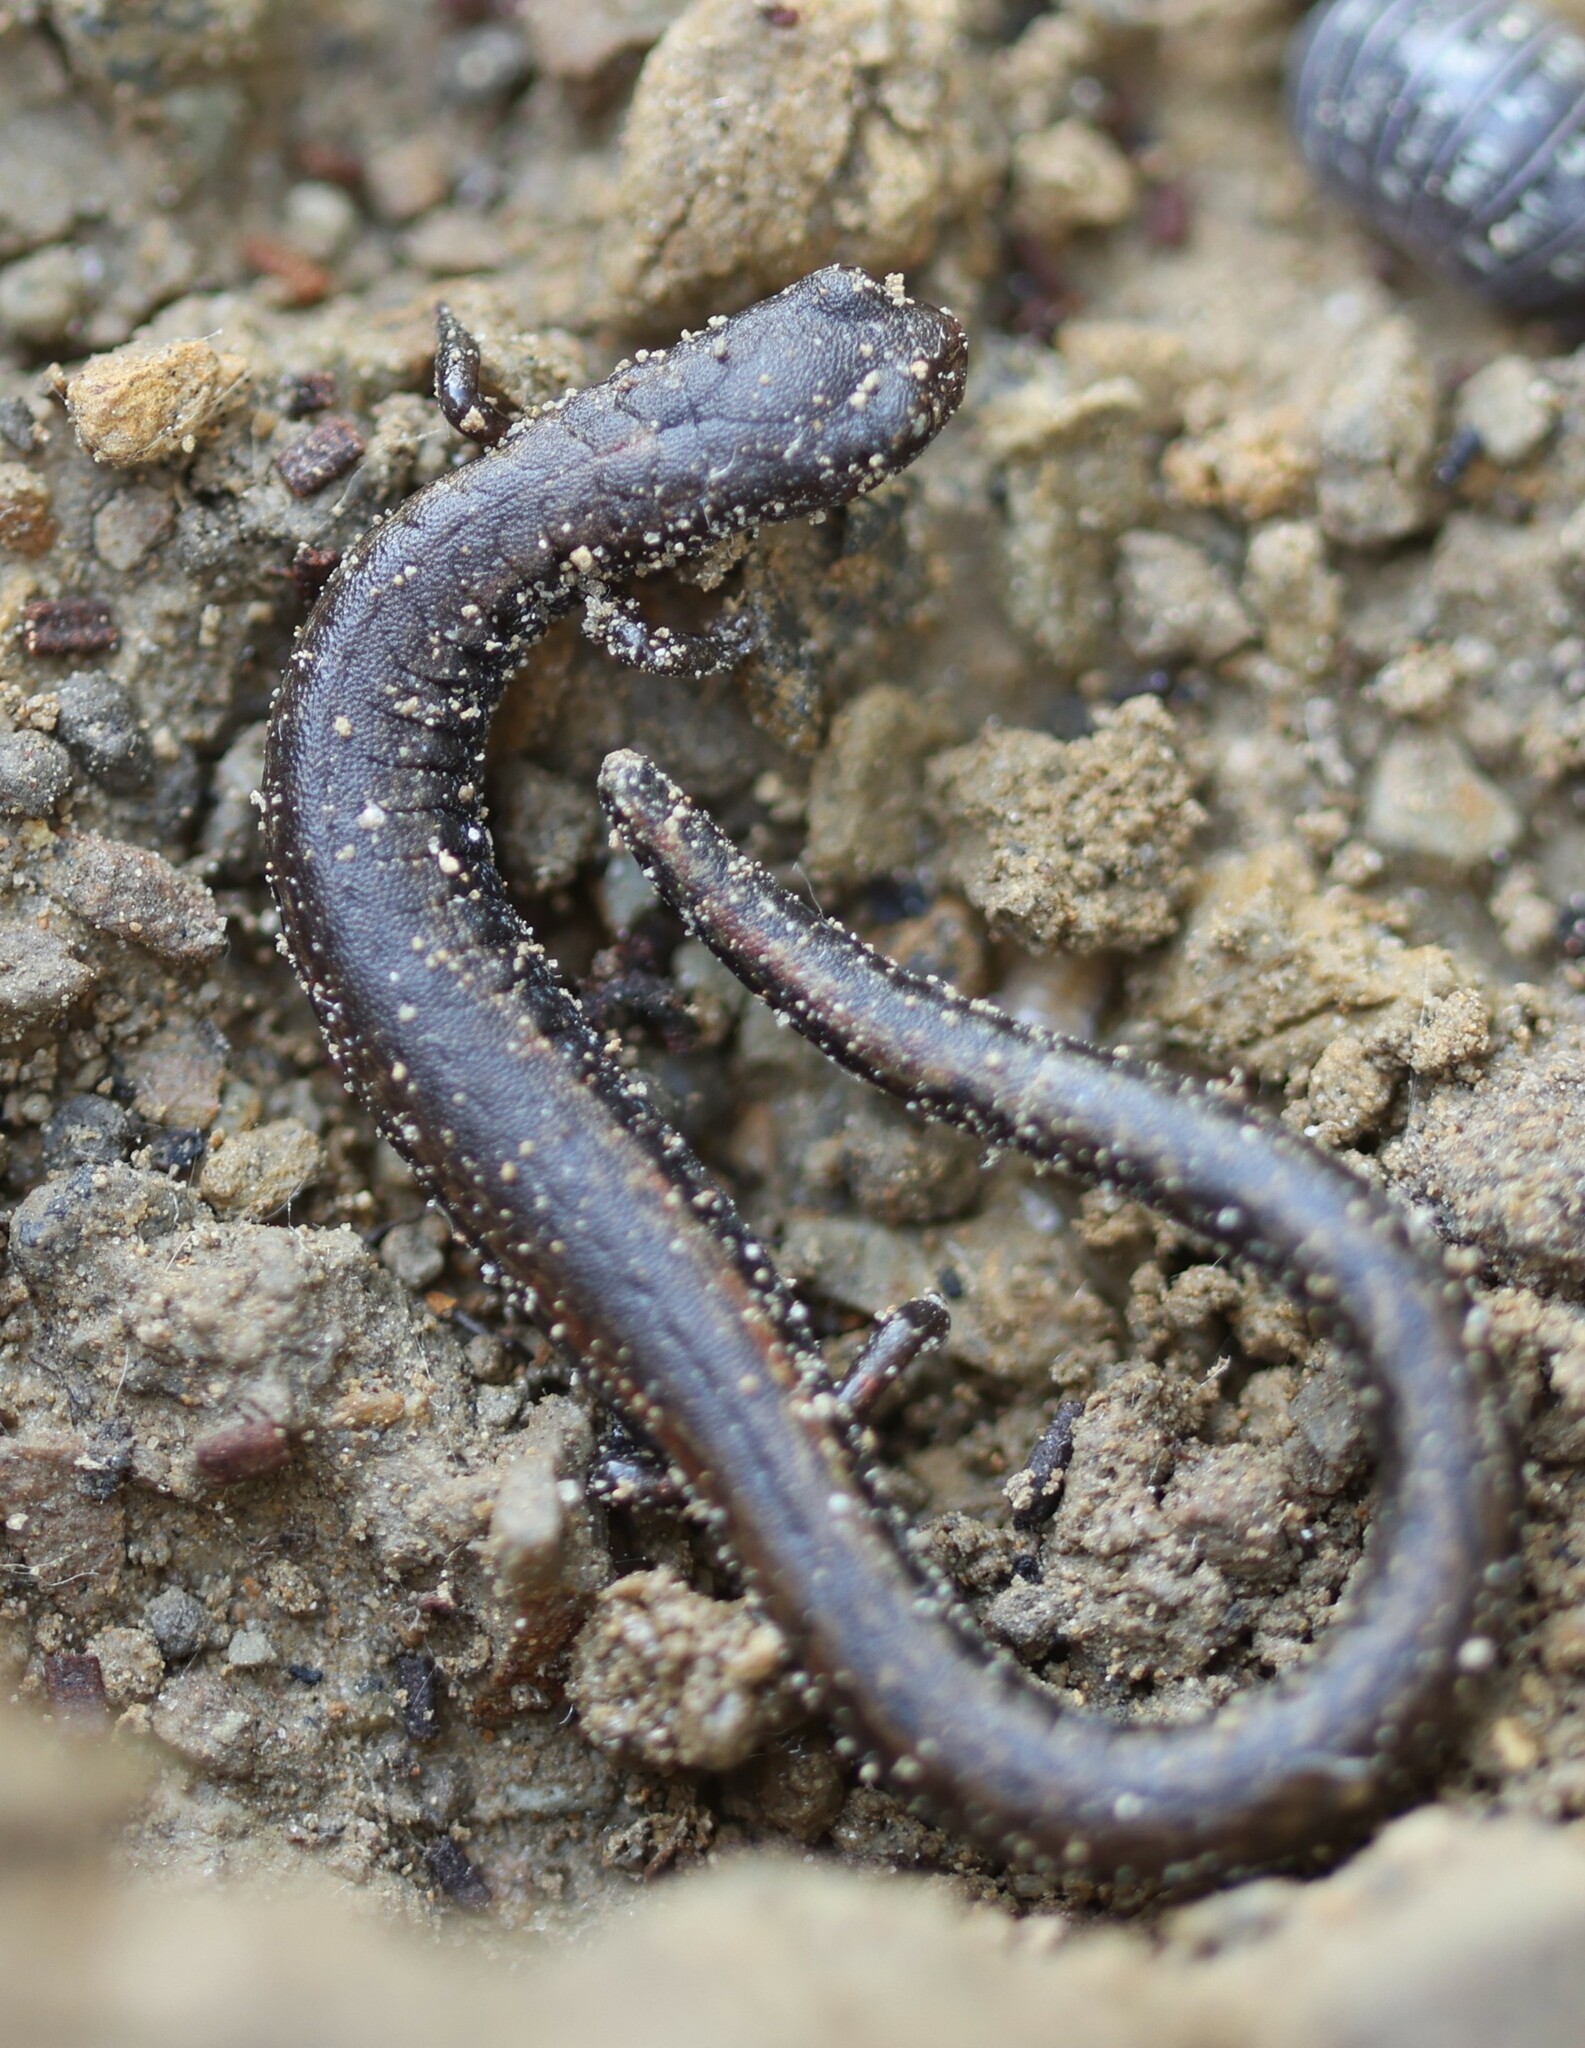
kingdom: Animalia
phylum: Chordata
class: Amphibia
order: Caudata
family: Plethodontidae
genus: Batrachoseps
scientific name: Batrachoseps nigriventris
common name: Black-bellied slender salamander
